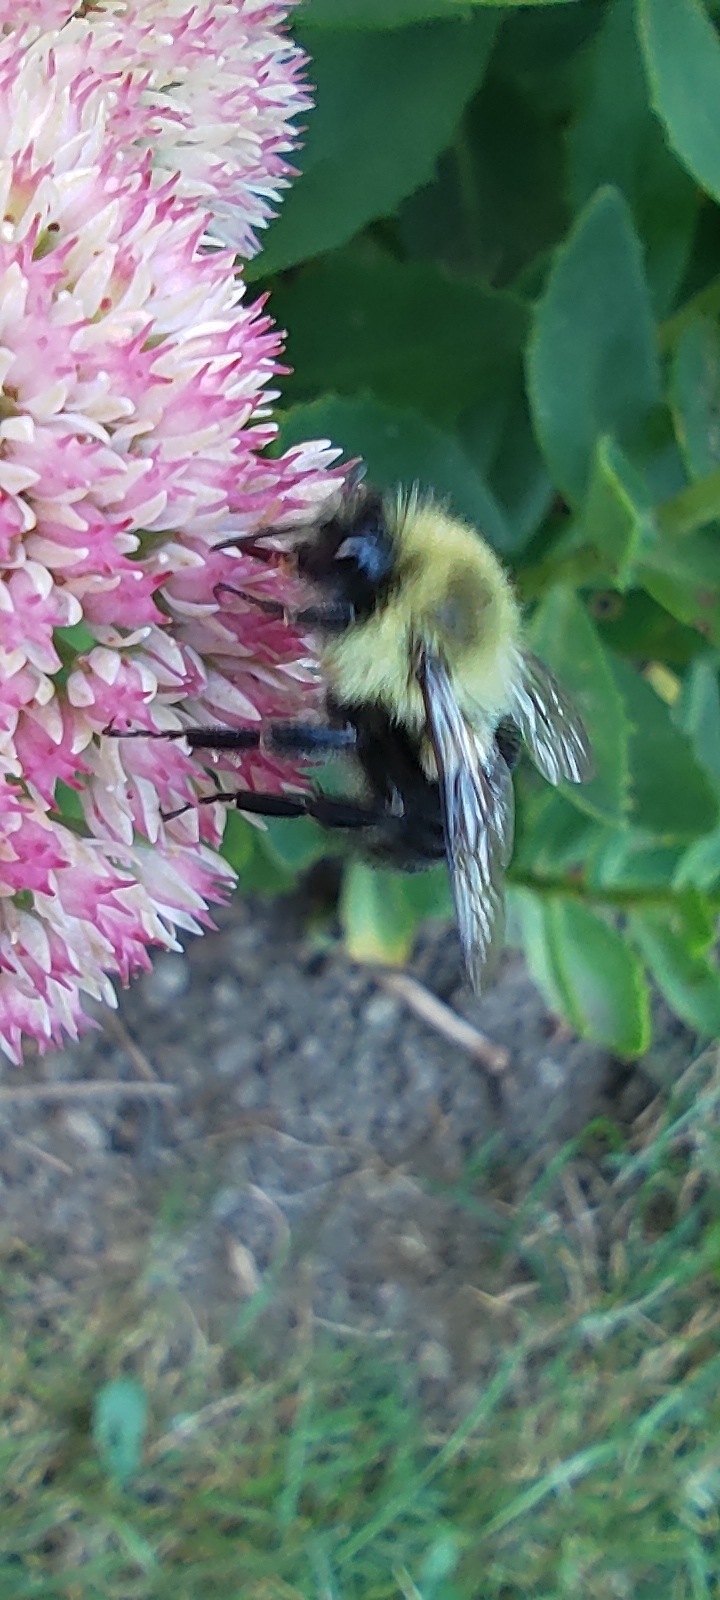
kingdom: Animalia
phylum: Arthropoda
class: Insecta
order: Hymenoptera
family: Apidae
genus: Bombus
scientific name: Bombus impatiens
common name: Common eastern bumble bee
